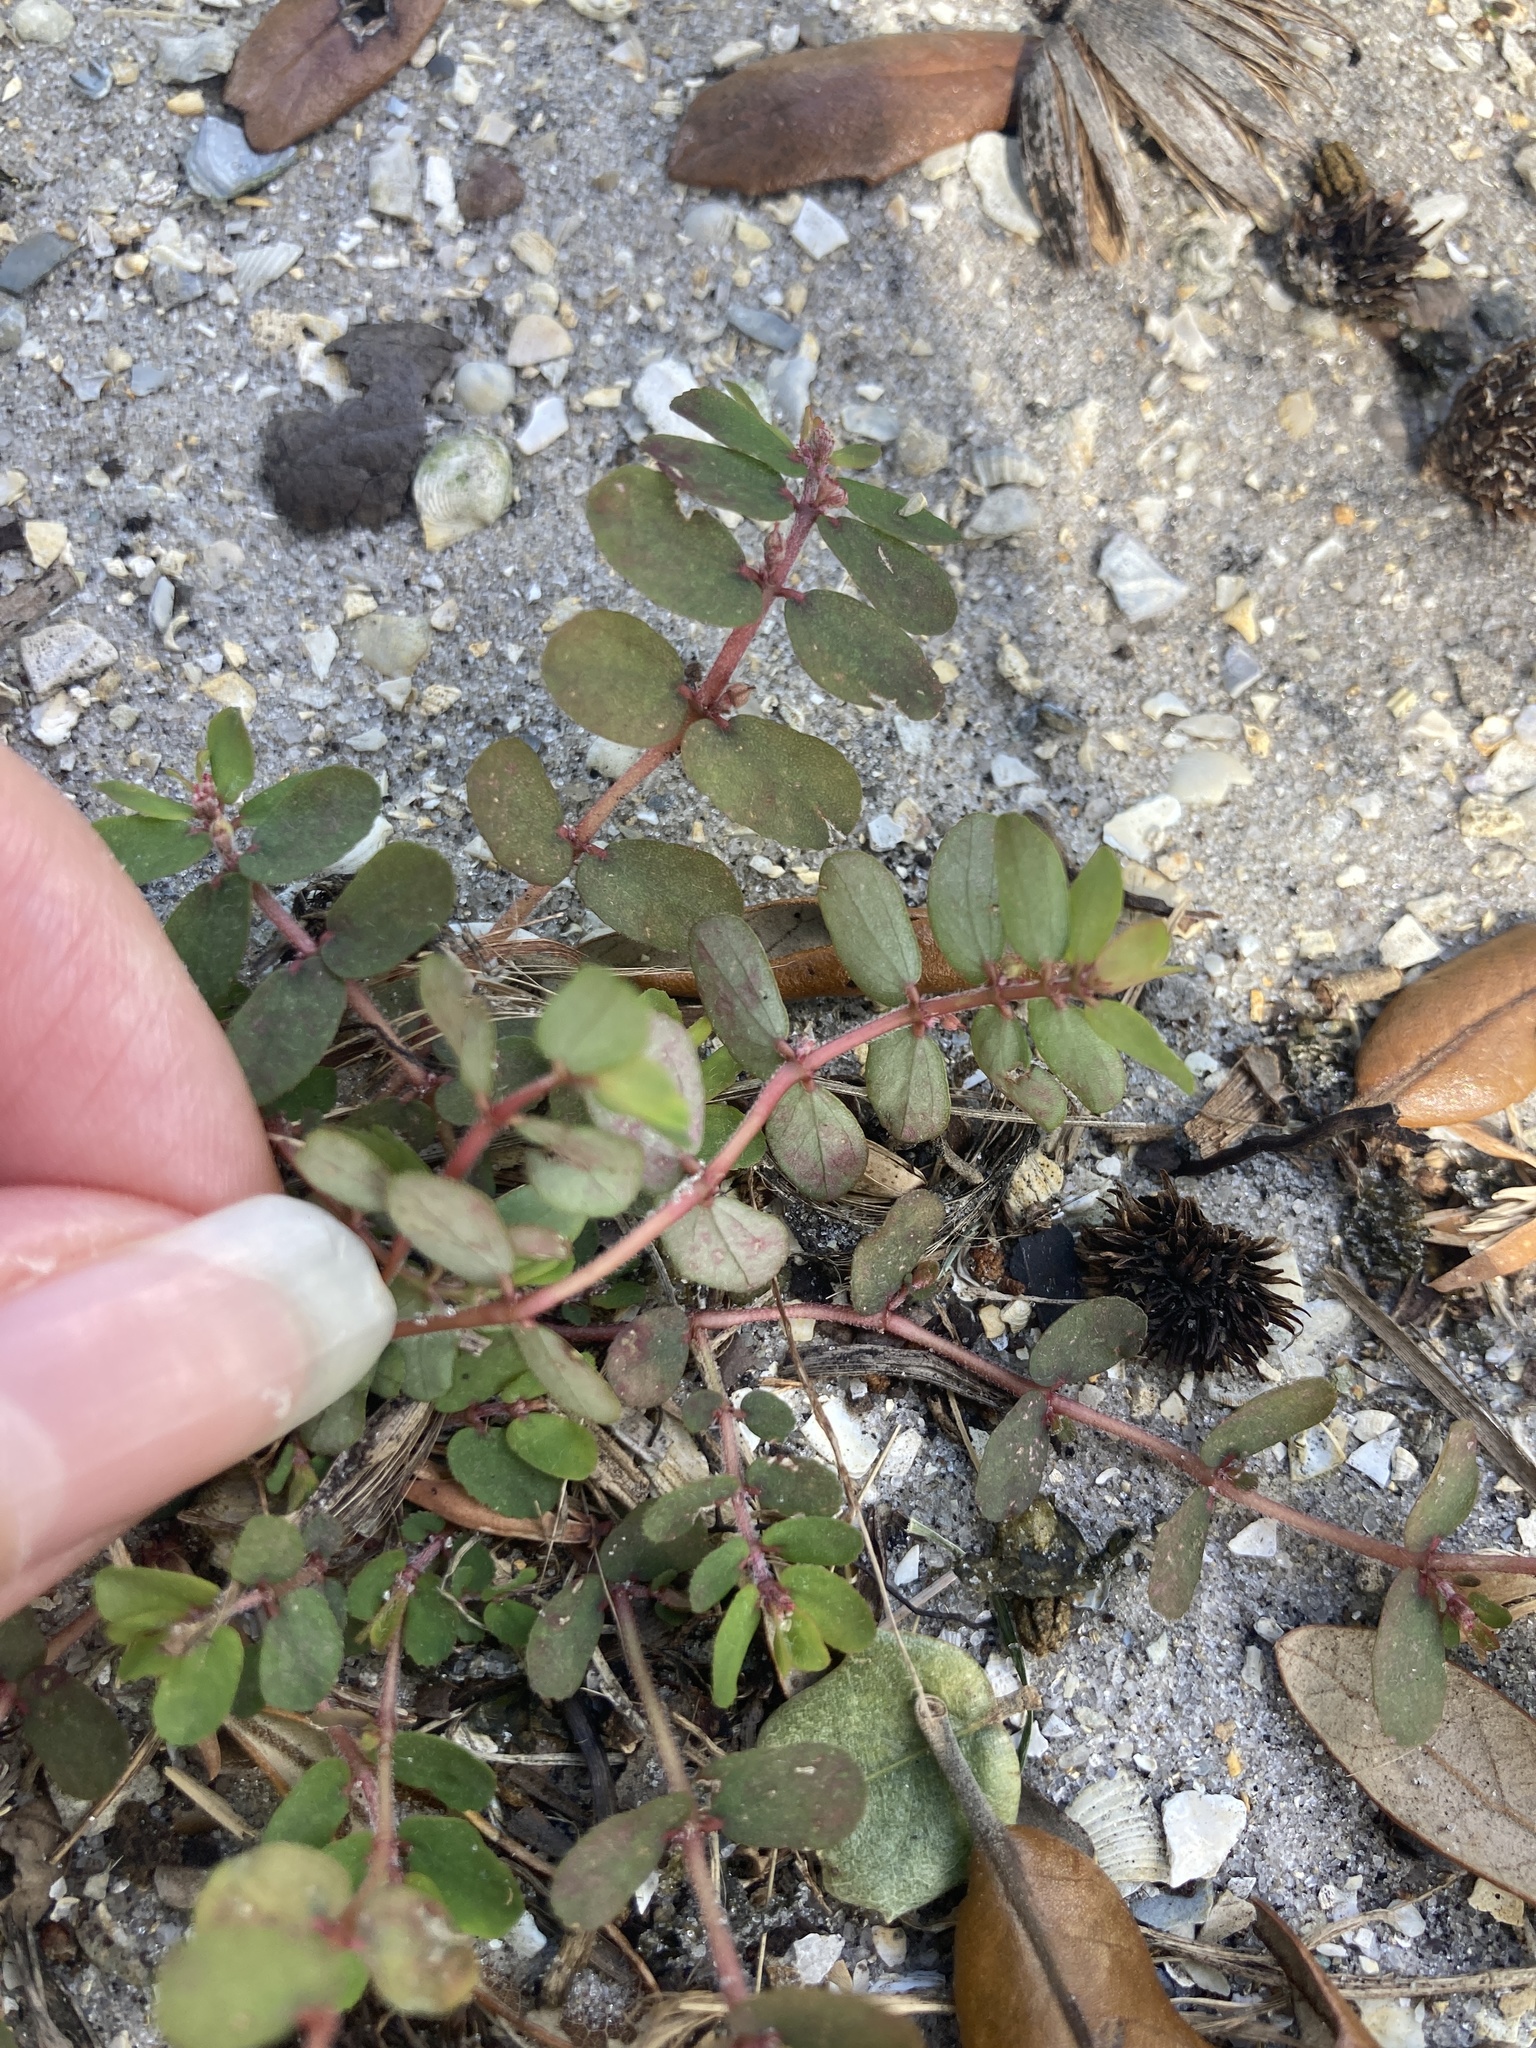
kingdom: Plantae
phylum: Tracheophyta
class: Magnoliopsida
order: Malpighiales
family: Euphorbiaceae
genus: Euphorbia
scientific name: Euphorbia thymifolia
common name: Gulf sandmat
